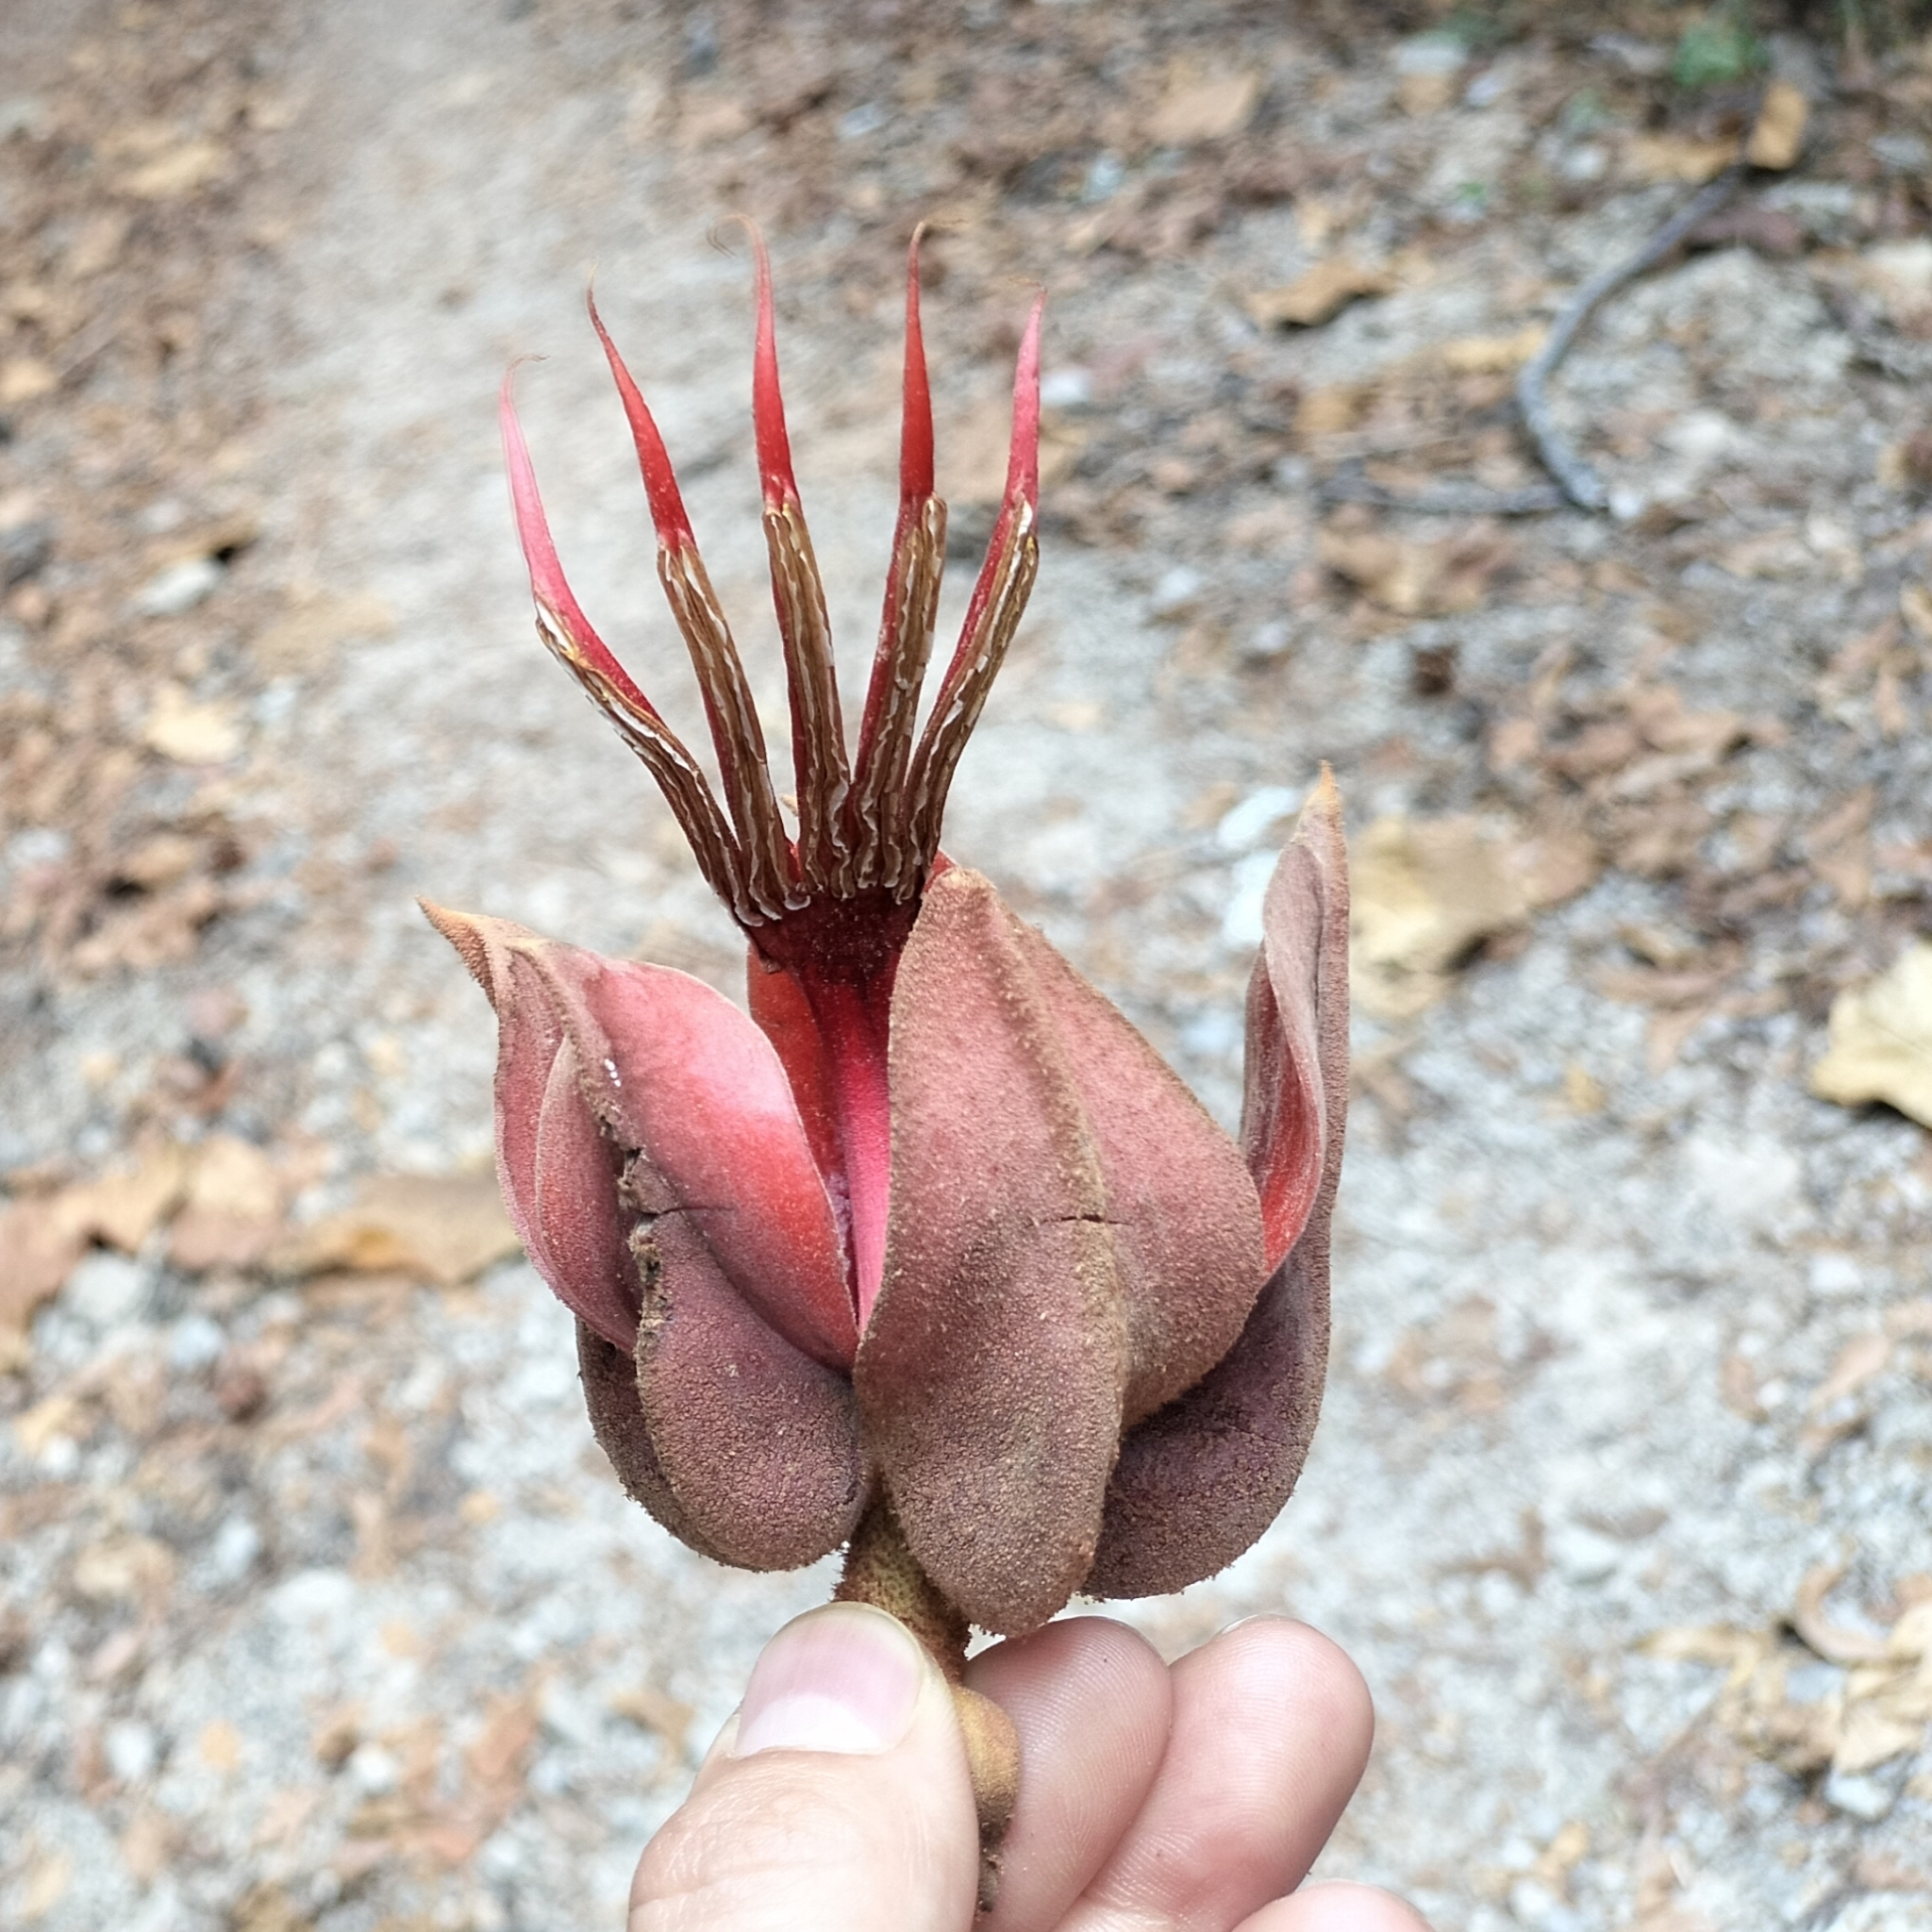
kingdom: Plantae
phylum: Tracheophyta
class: Magnoliopsida
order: Malvales
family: Malvaceae
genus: Chiranthodendron
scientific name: Chiranthodendron pentadactylon
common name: Mexican-hat-plant
